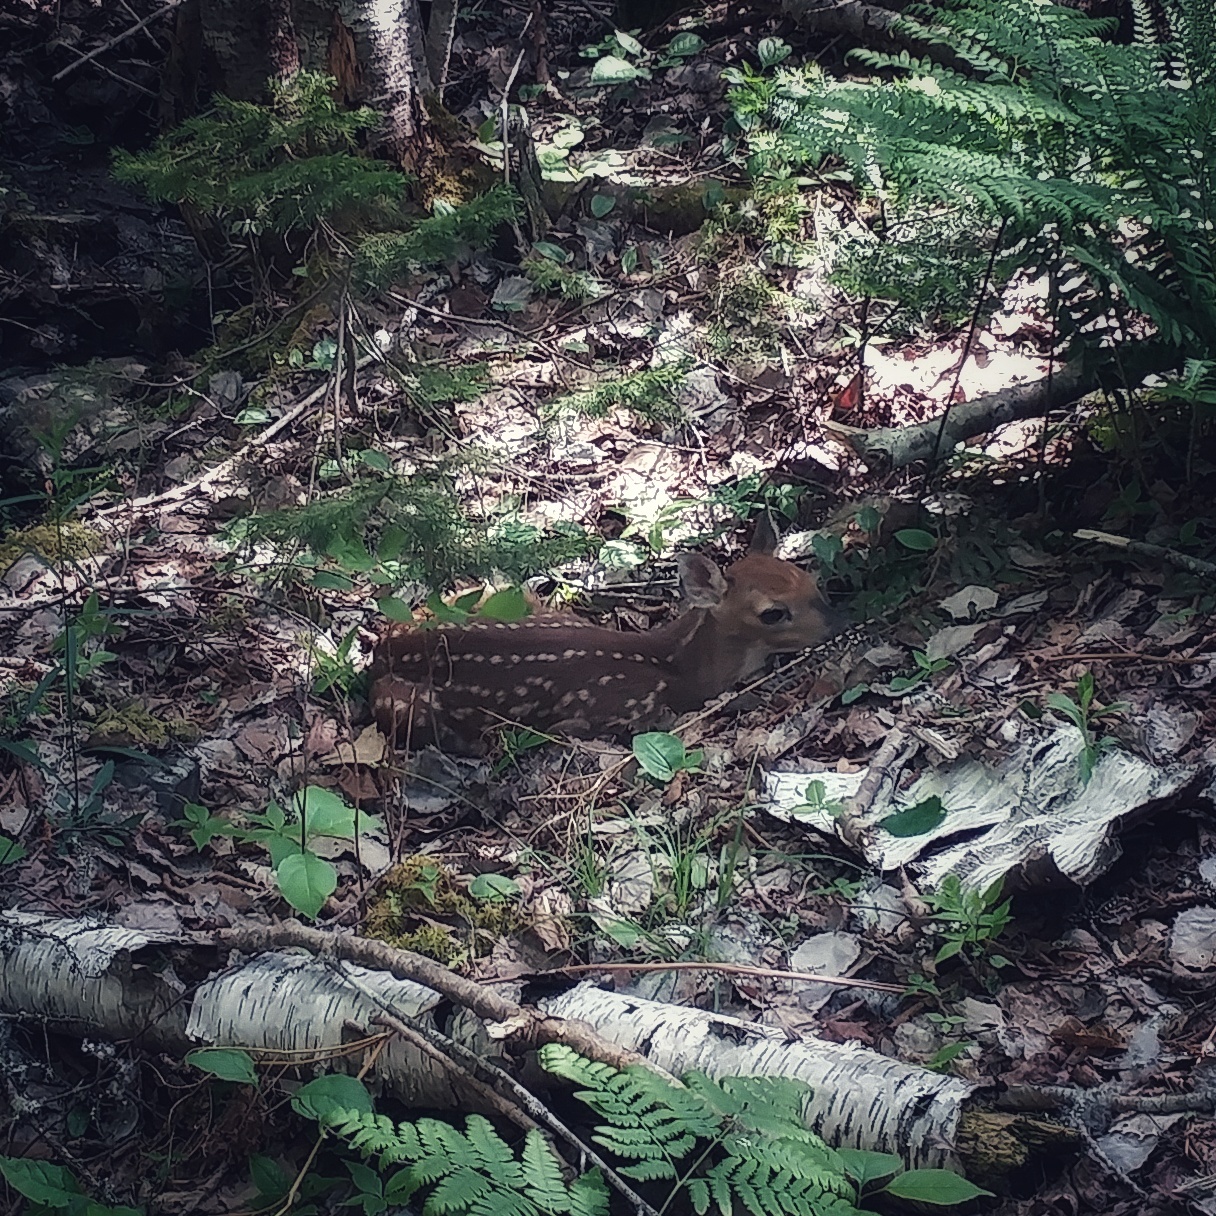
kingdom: Animalia
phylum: Chordata
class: Mammalia
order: Artiodactyla
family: Cervidae
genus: Odocoileus
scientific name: Odocoileus virginianus
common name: White-tailed deer
